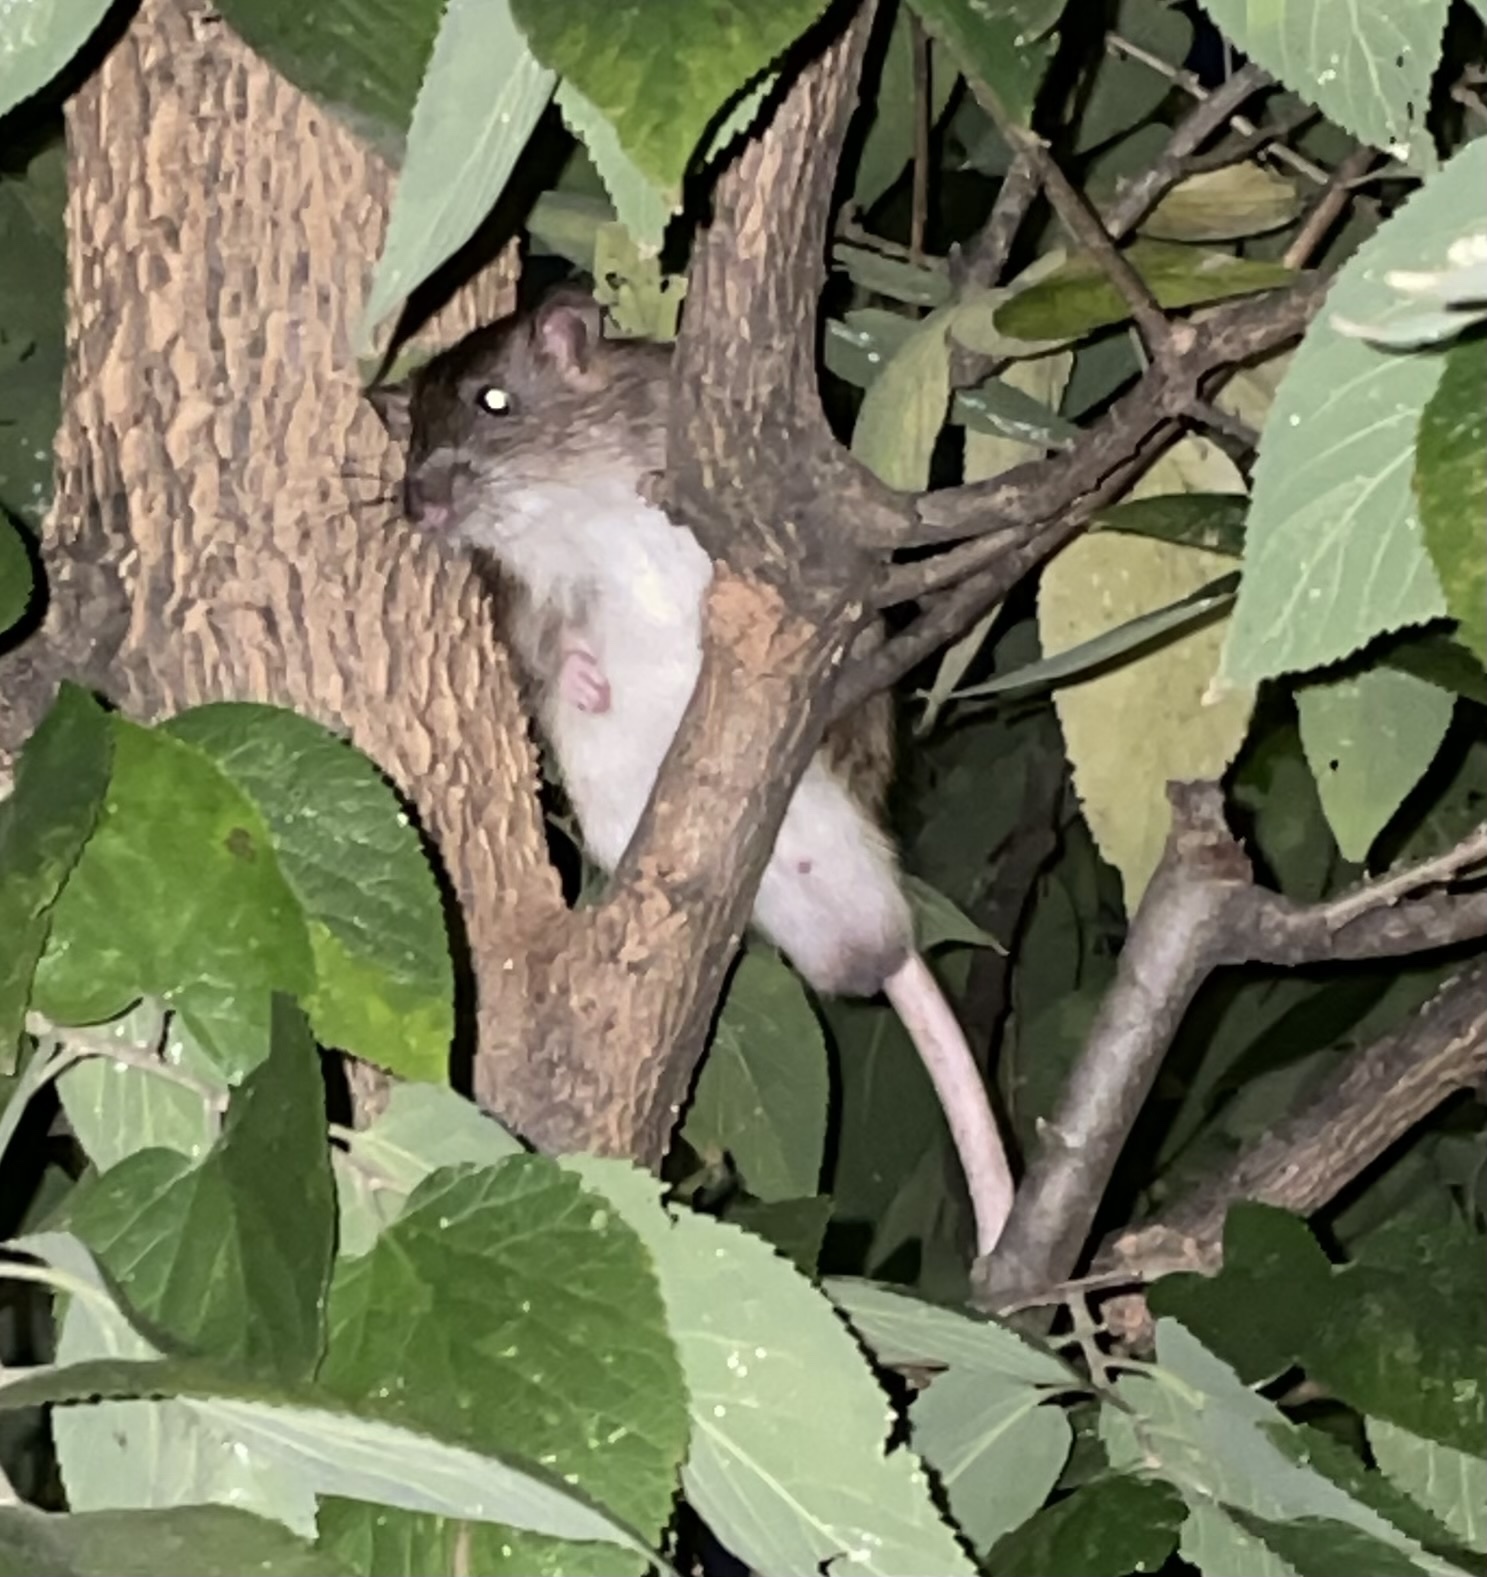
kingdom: Animalia
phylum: Chordata
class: Mammalia
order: Rodentia
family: Muridae
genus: Rattus
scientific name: Rattus norvegicus
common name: Brown rat
